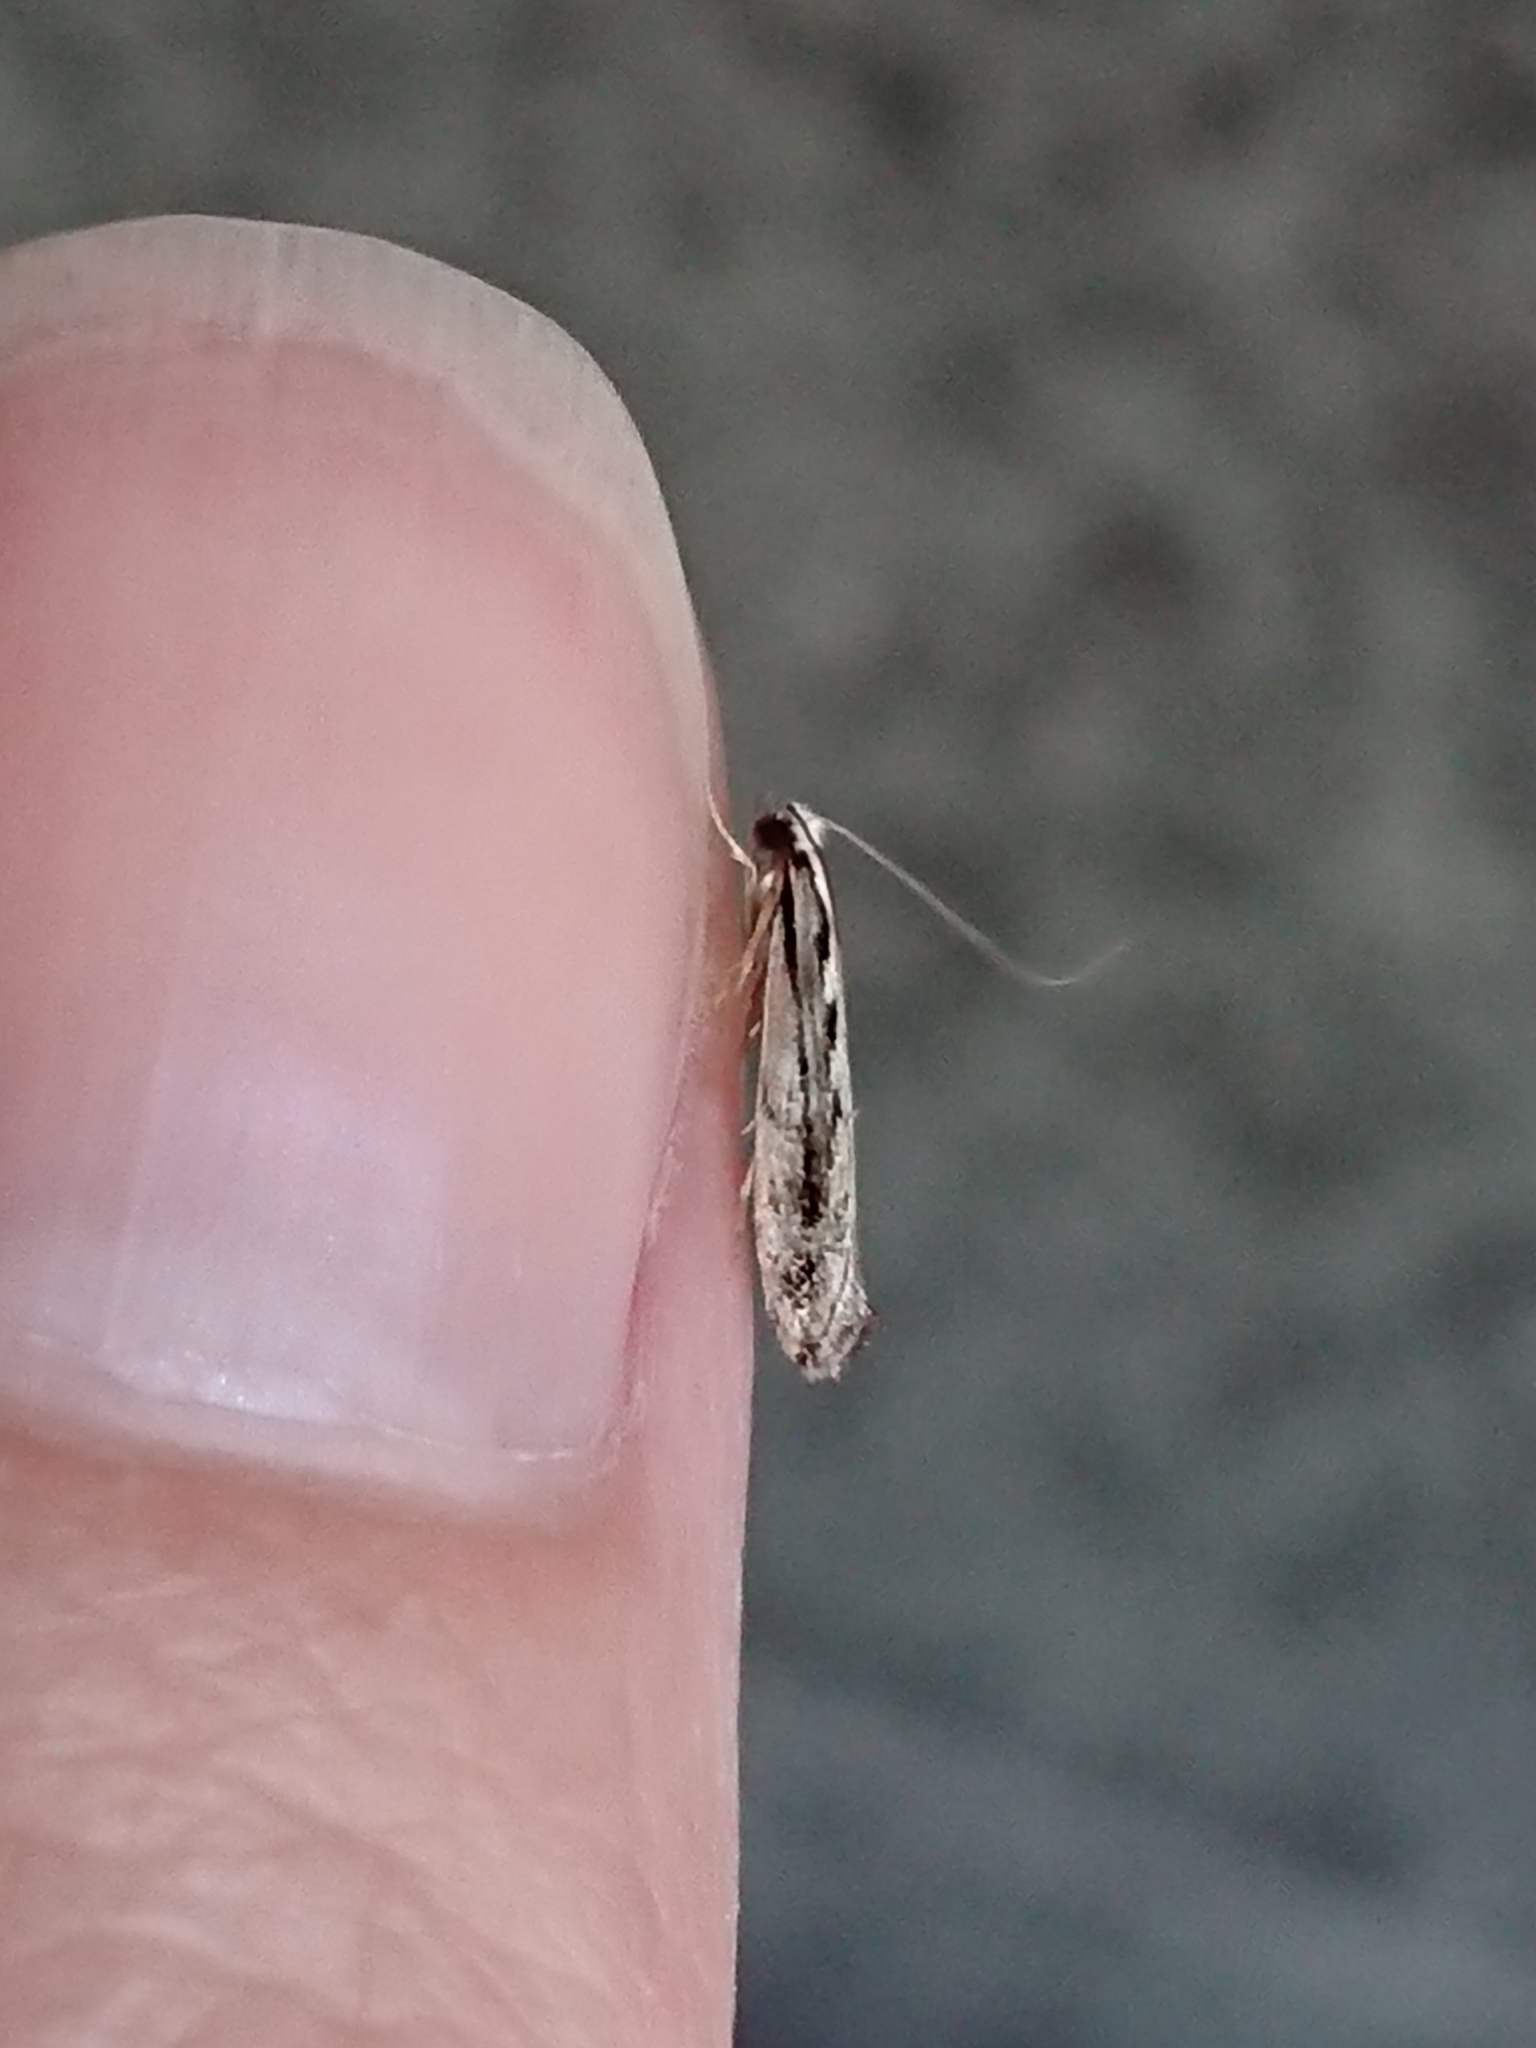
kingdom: Animalia
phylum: Arthropoda
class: Insecta
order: Lepidoptera
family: Tineidae
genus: Erechthias
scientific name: Erechthias fulguritella
